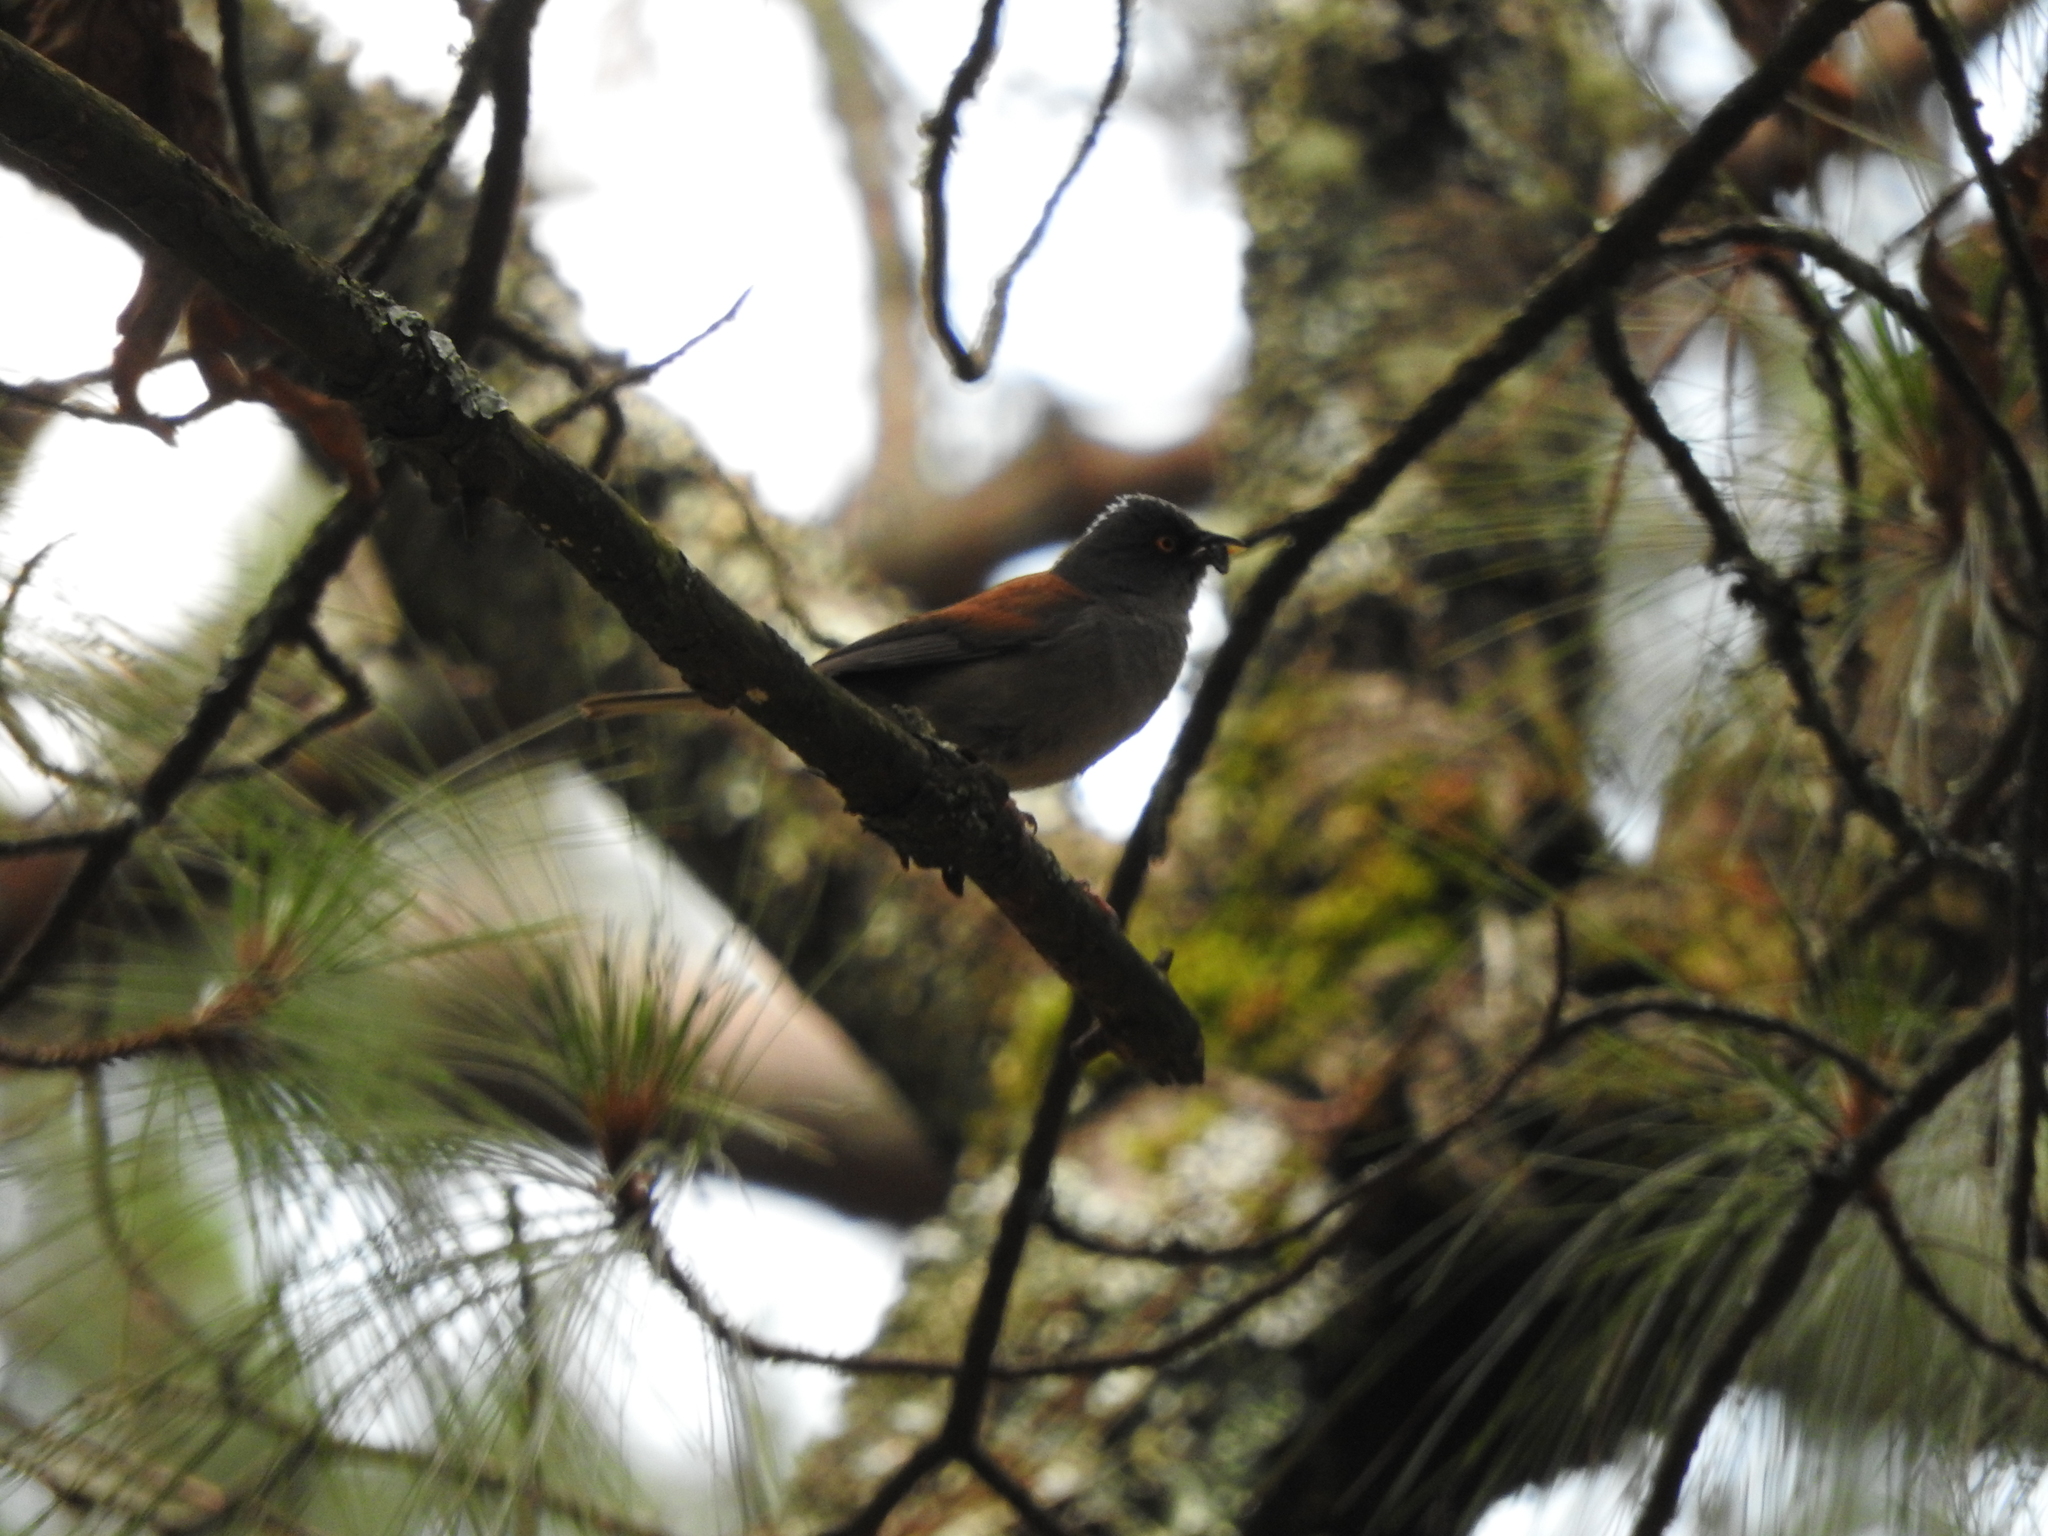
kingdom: Animalia
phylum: Chordata
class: Aves
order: Passeriformes
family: Passerellidae
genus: Junco
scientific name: Junco phaeonotus
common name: Yellow-eyed junco
